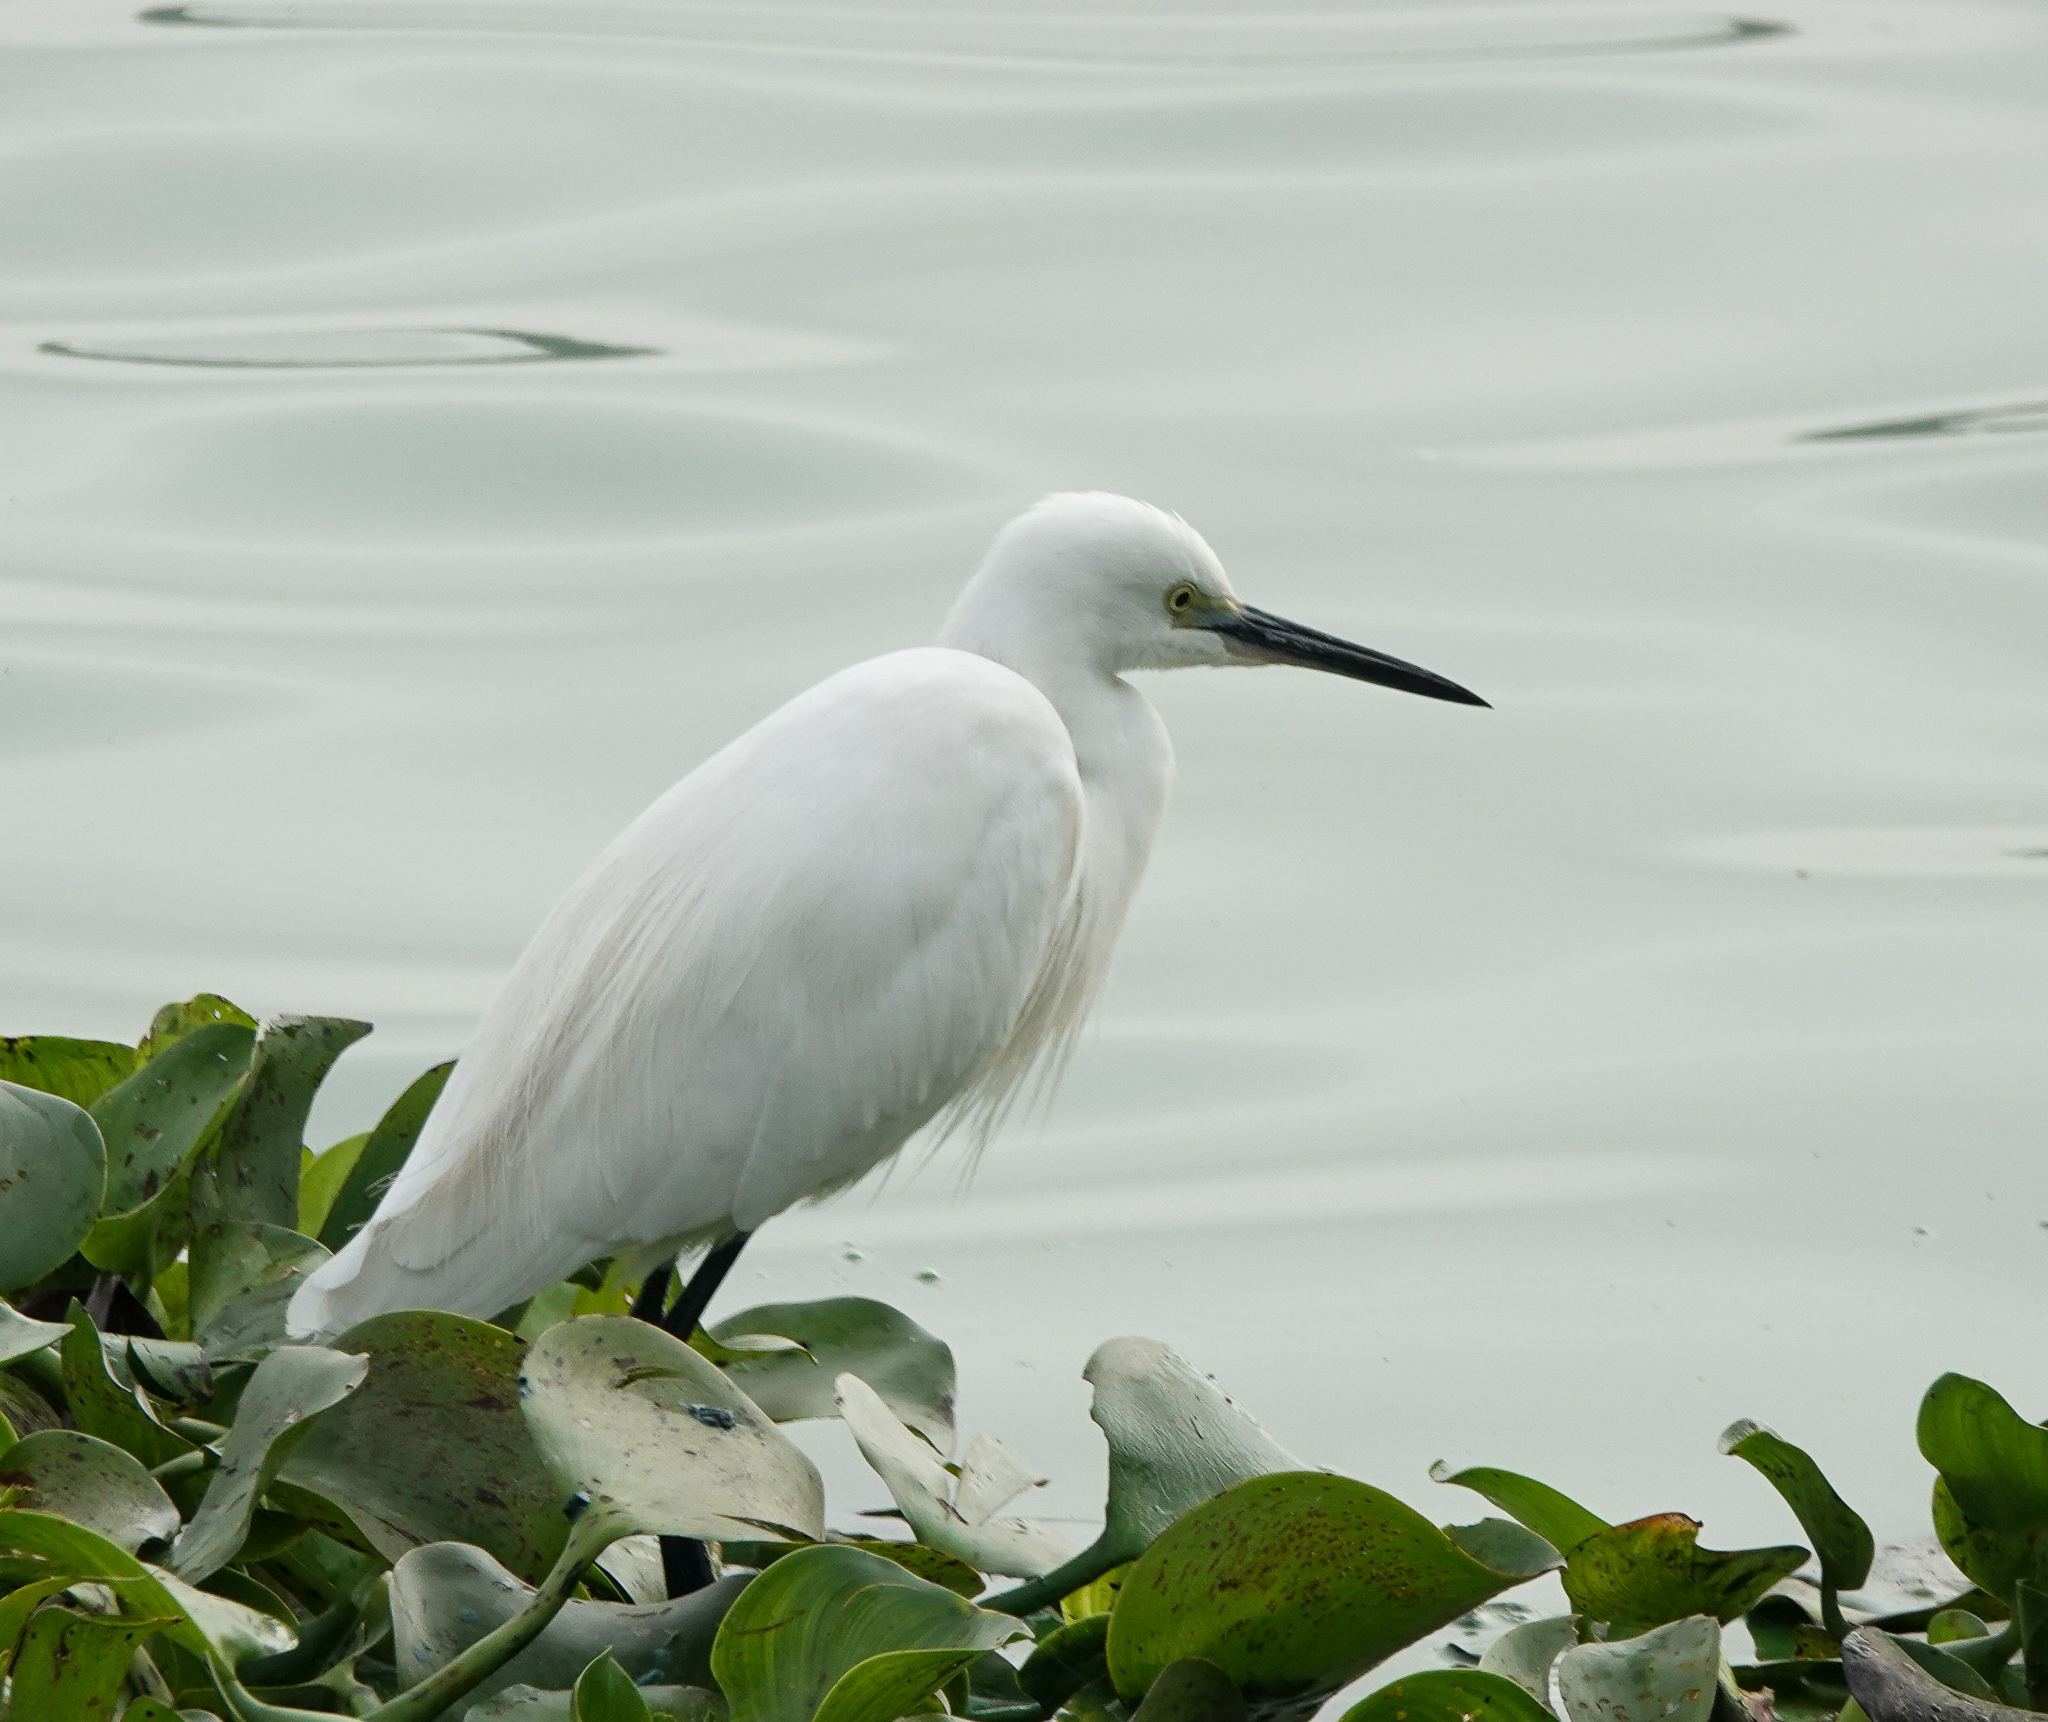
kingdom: Animalia
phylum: Chordata
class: Aves
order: Pelecaniformes
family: Ardeidae
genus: Egretta
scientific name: Egretta garzetta
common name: Little egret
